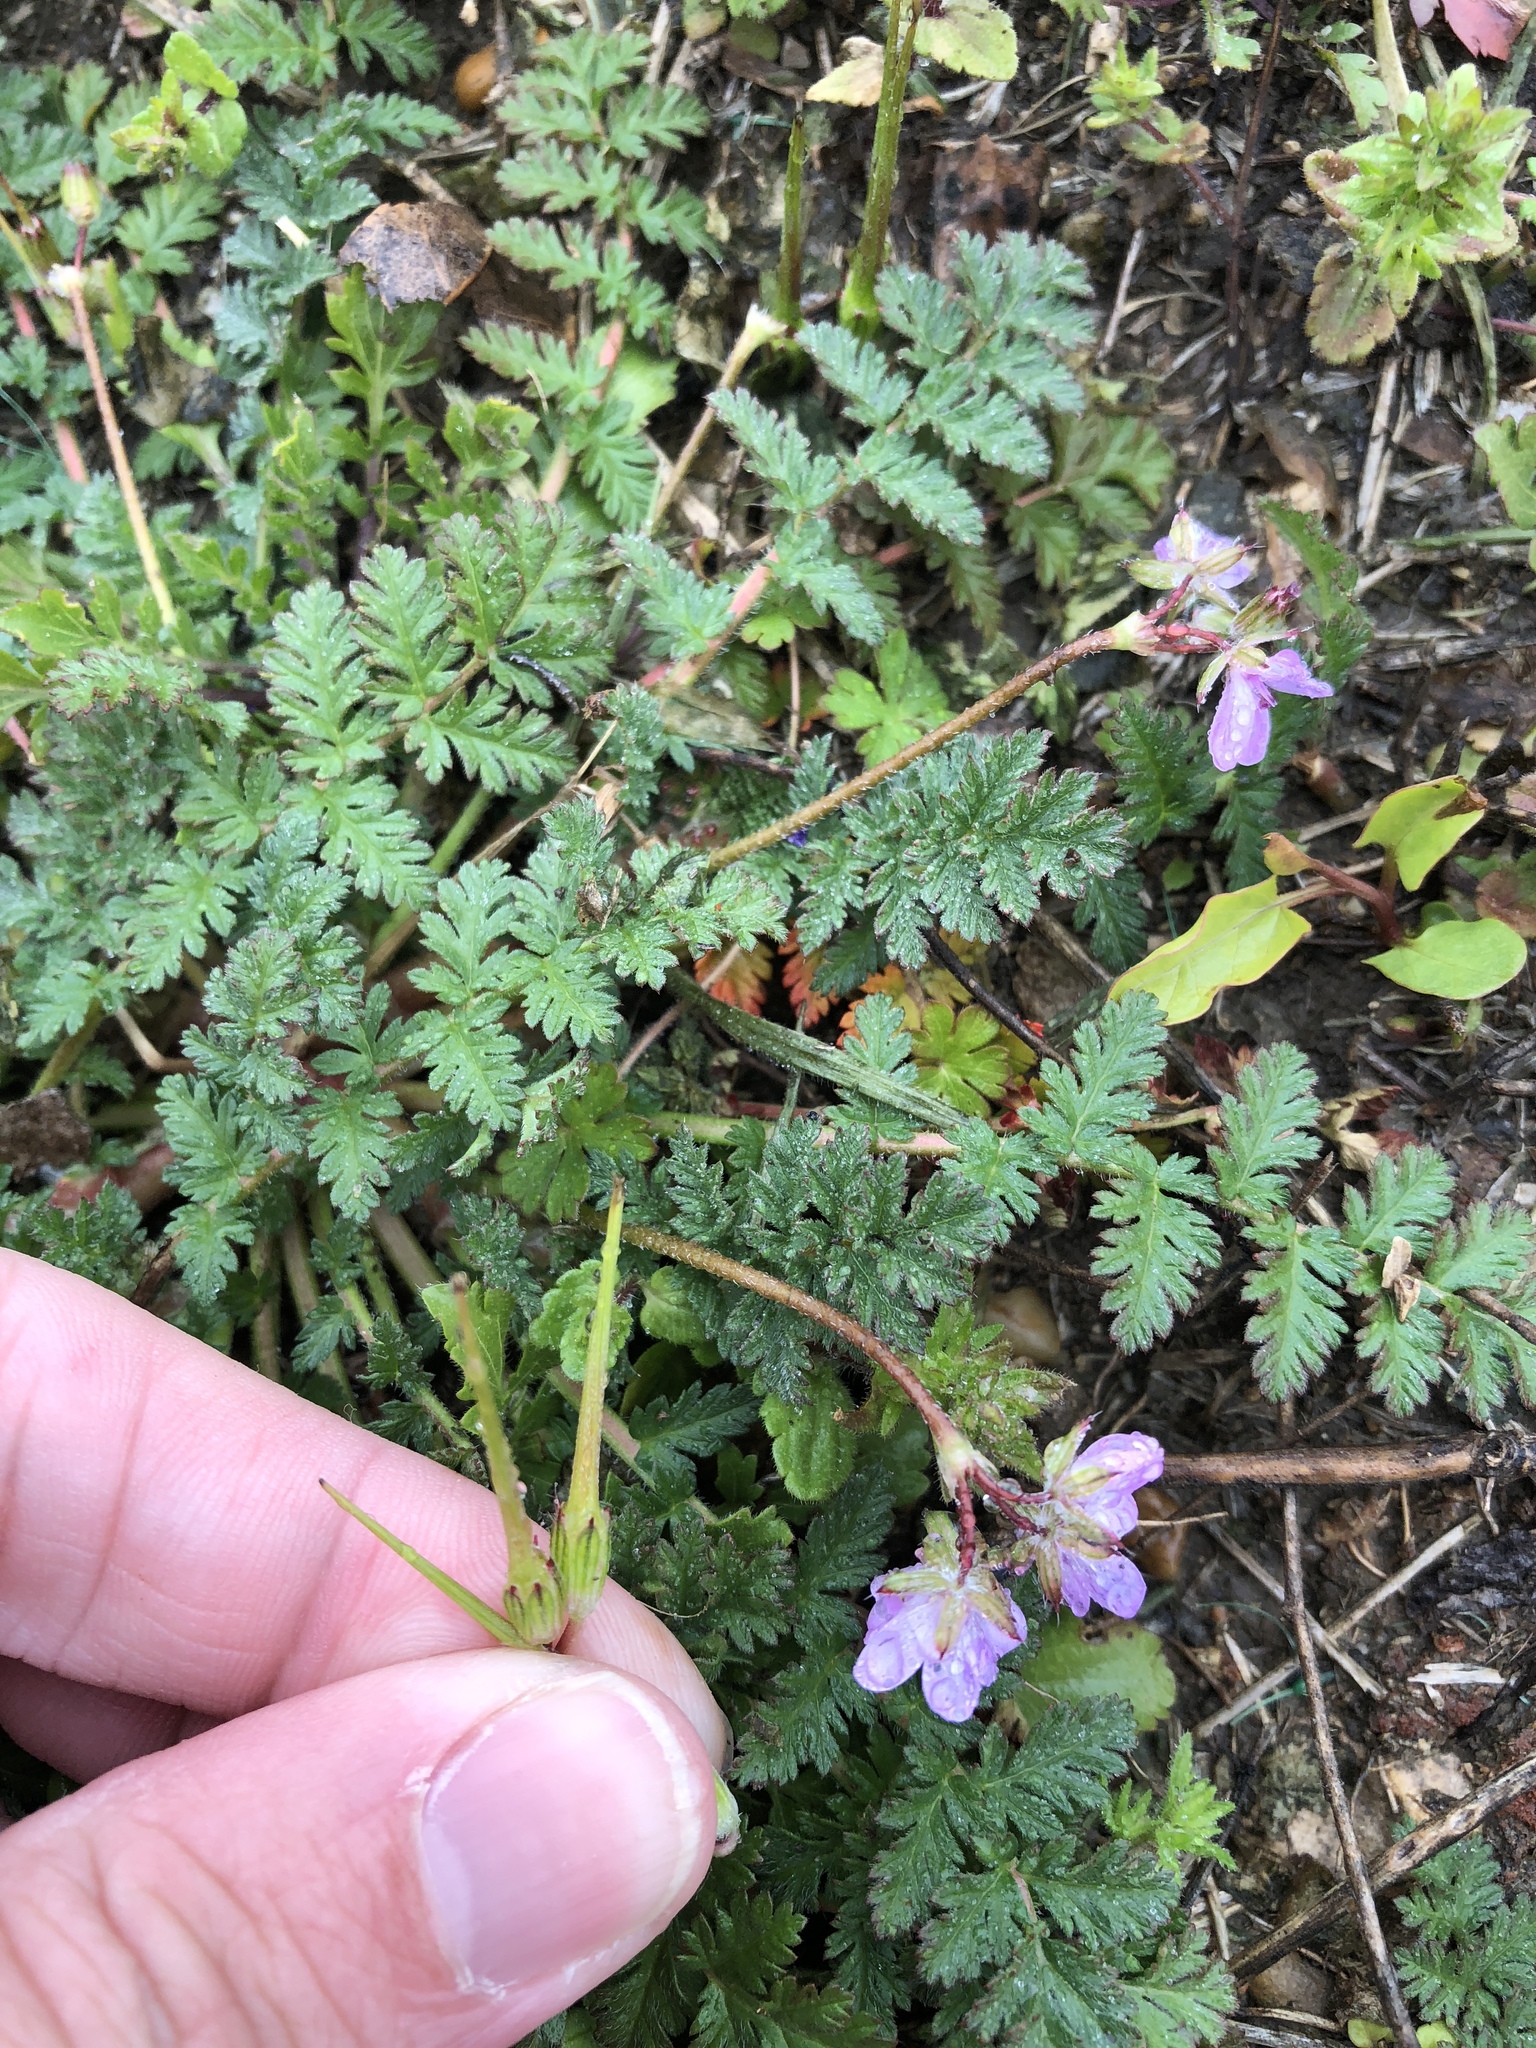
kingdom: Plantae
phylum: Tracheophyta
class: Magnoliopsida
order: Geraniales
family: Geraniaceae
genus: Erodium
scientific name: Erodium cicutarium
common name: Common stork's-bill
